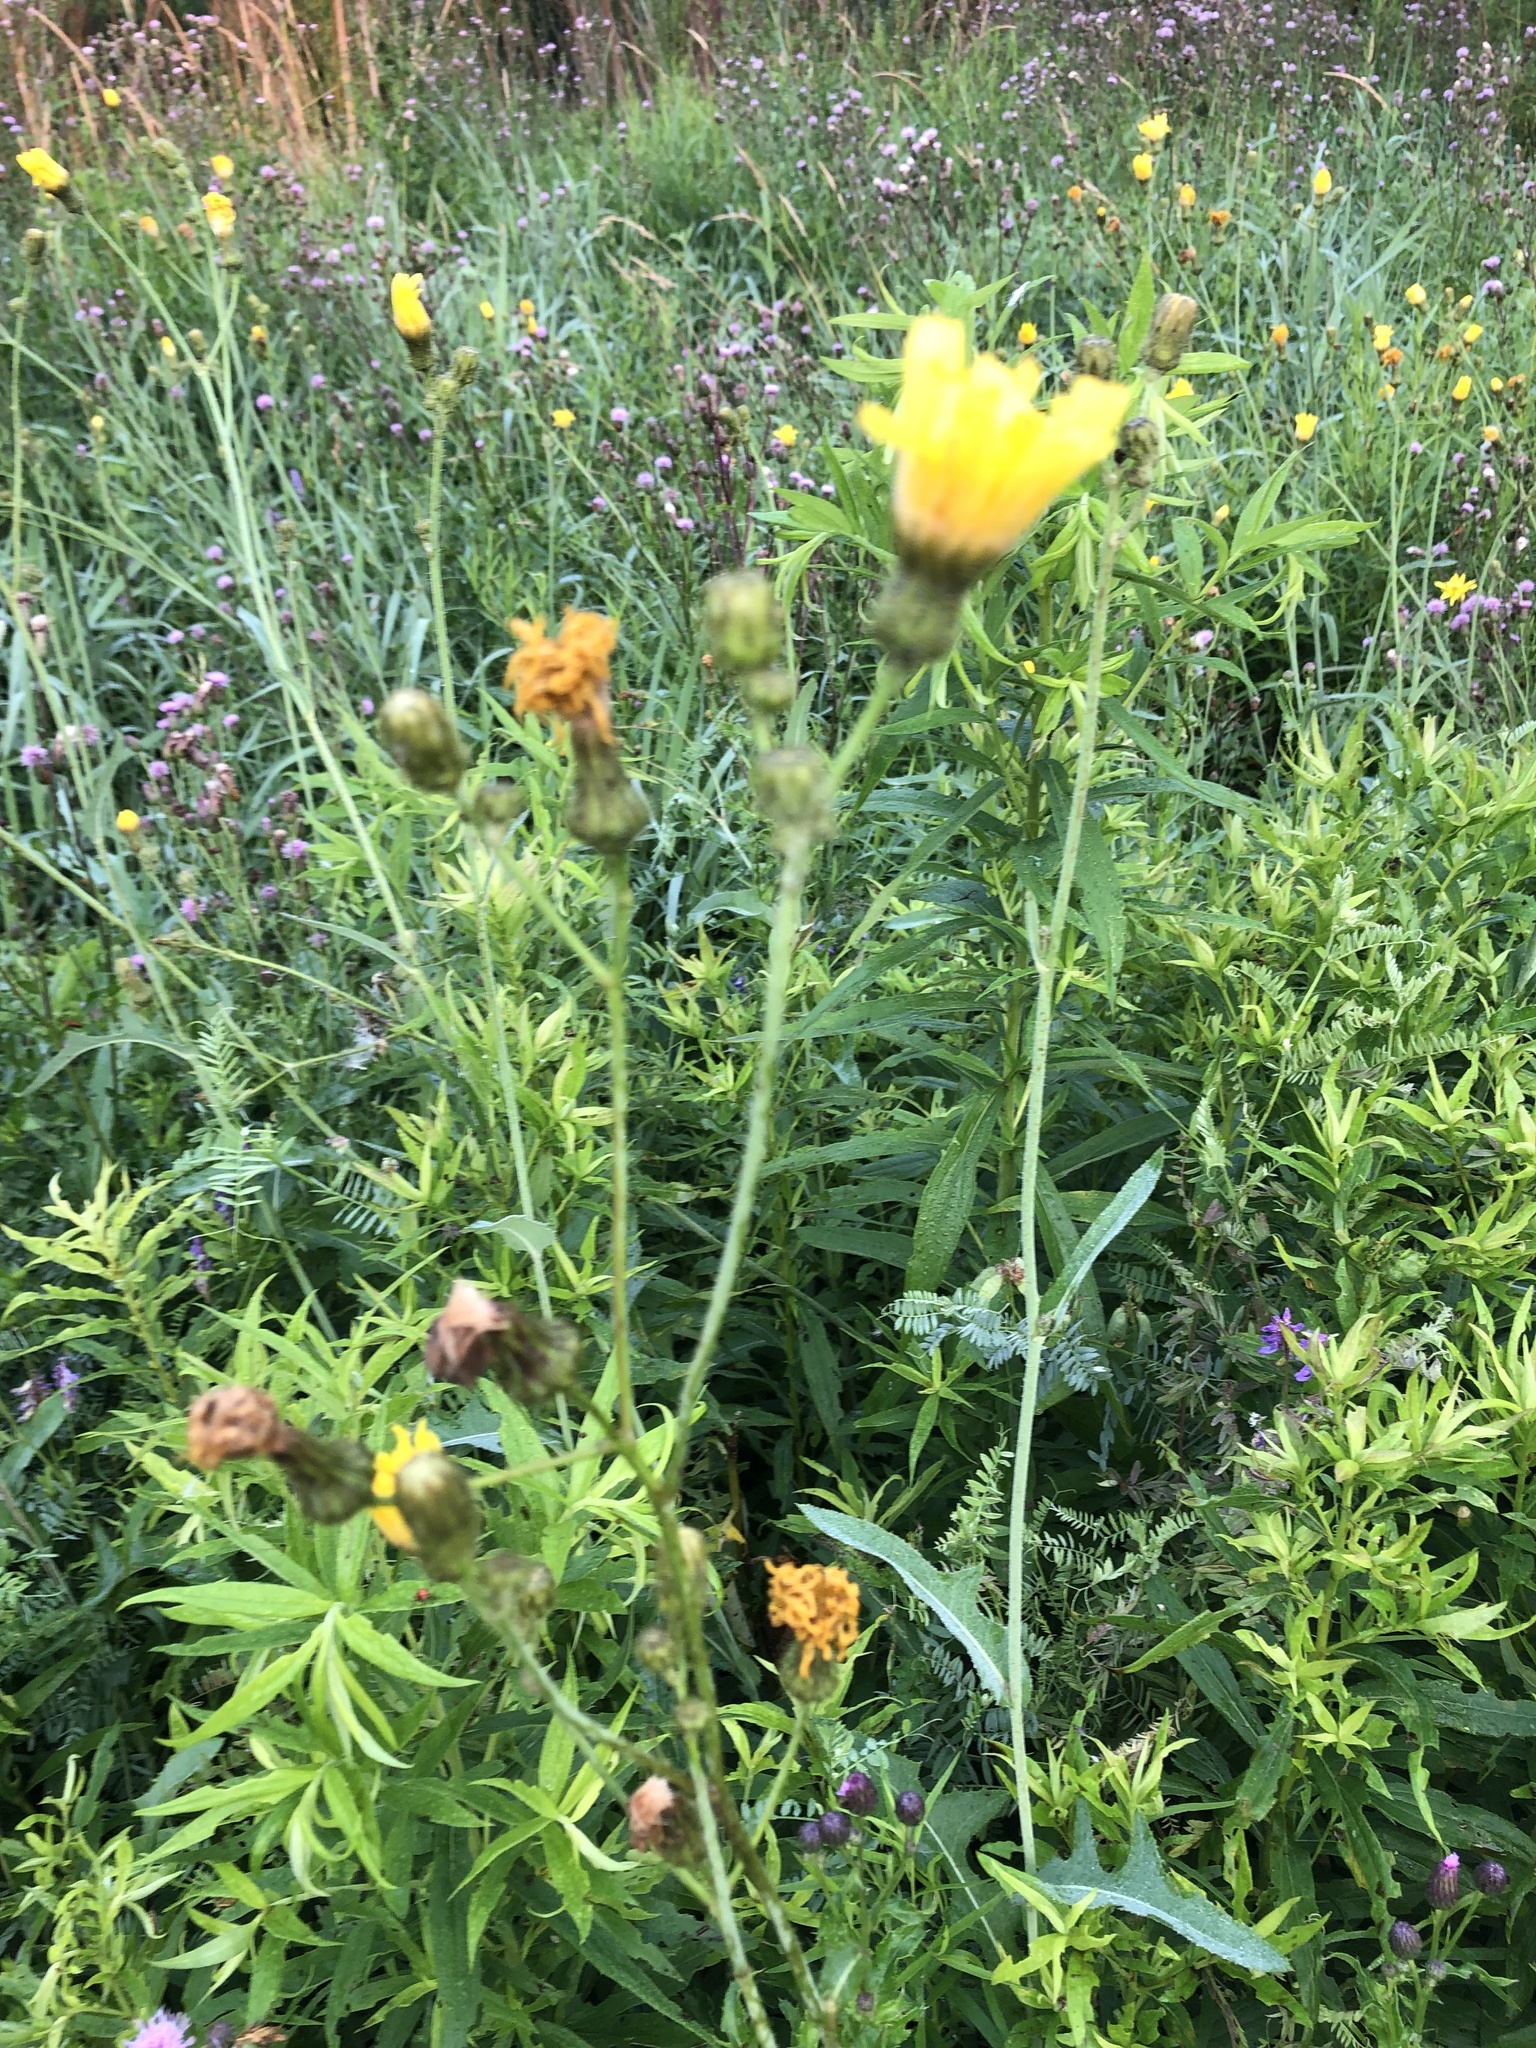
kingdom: Plantae
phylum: Tracheophyta
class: Magnoliopsida
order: Asterales
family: Asteraceae
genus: Sonchus
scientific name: Sonchus arvensis
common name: Perennial sow-thistle
